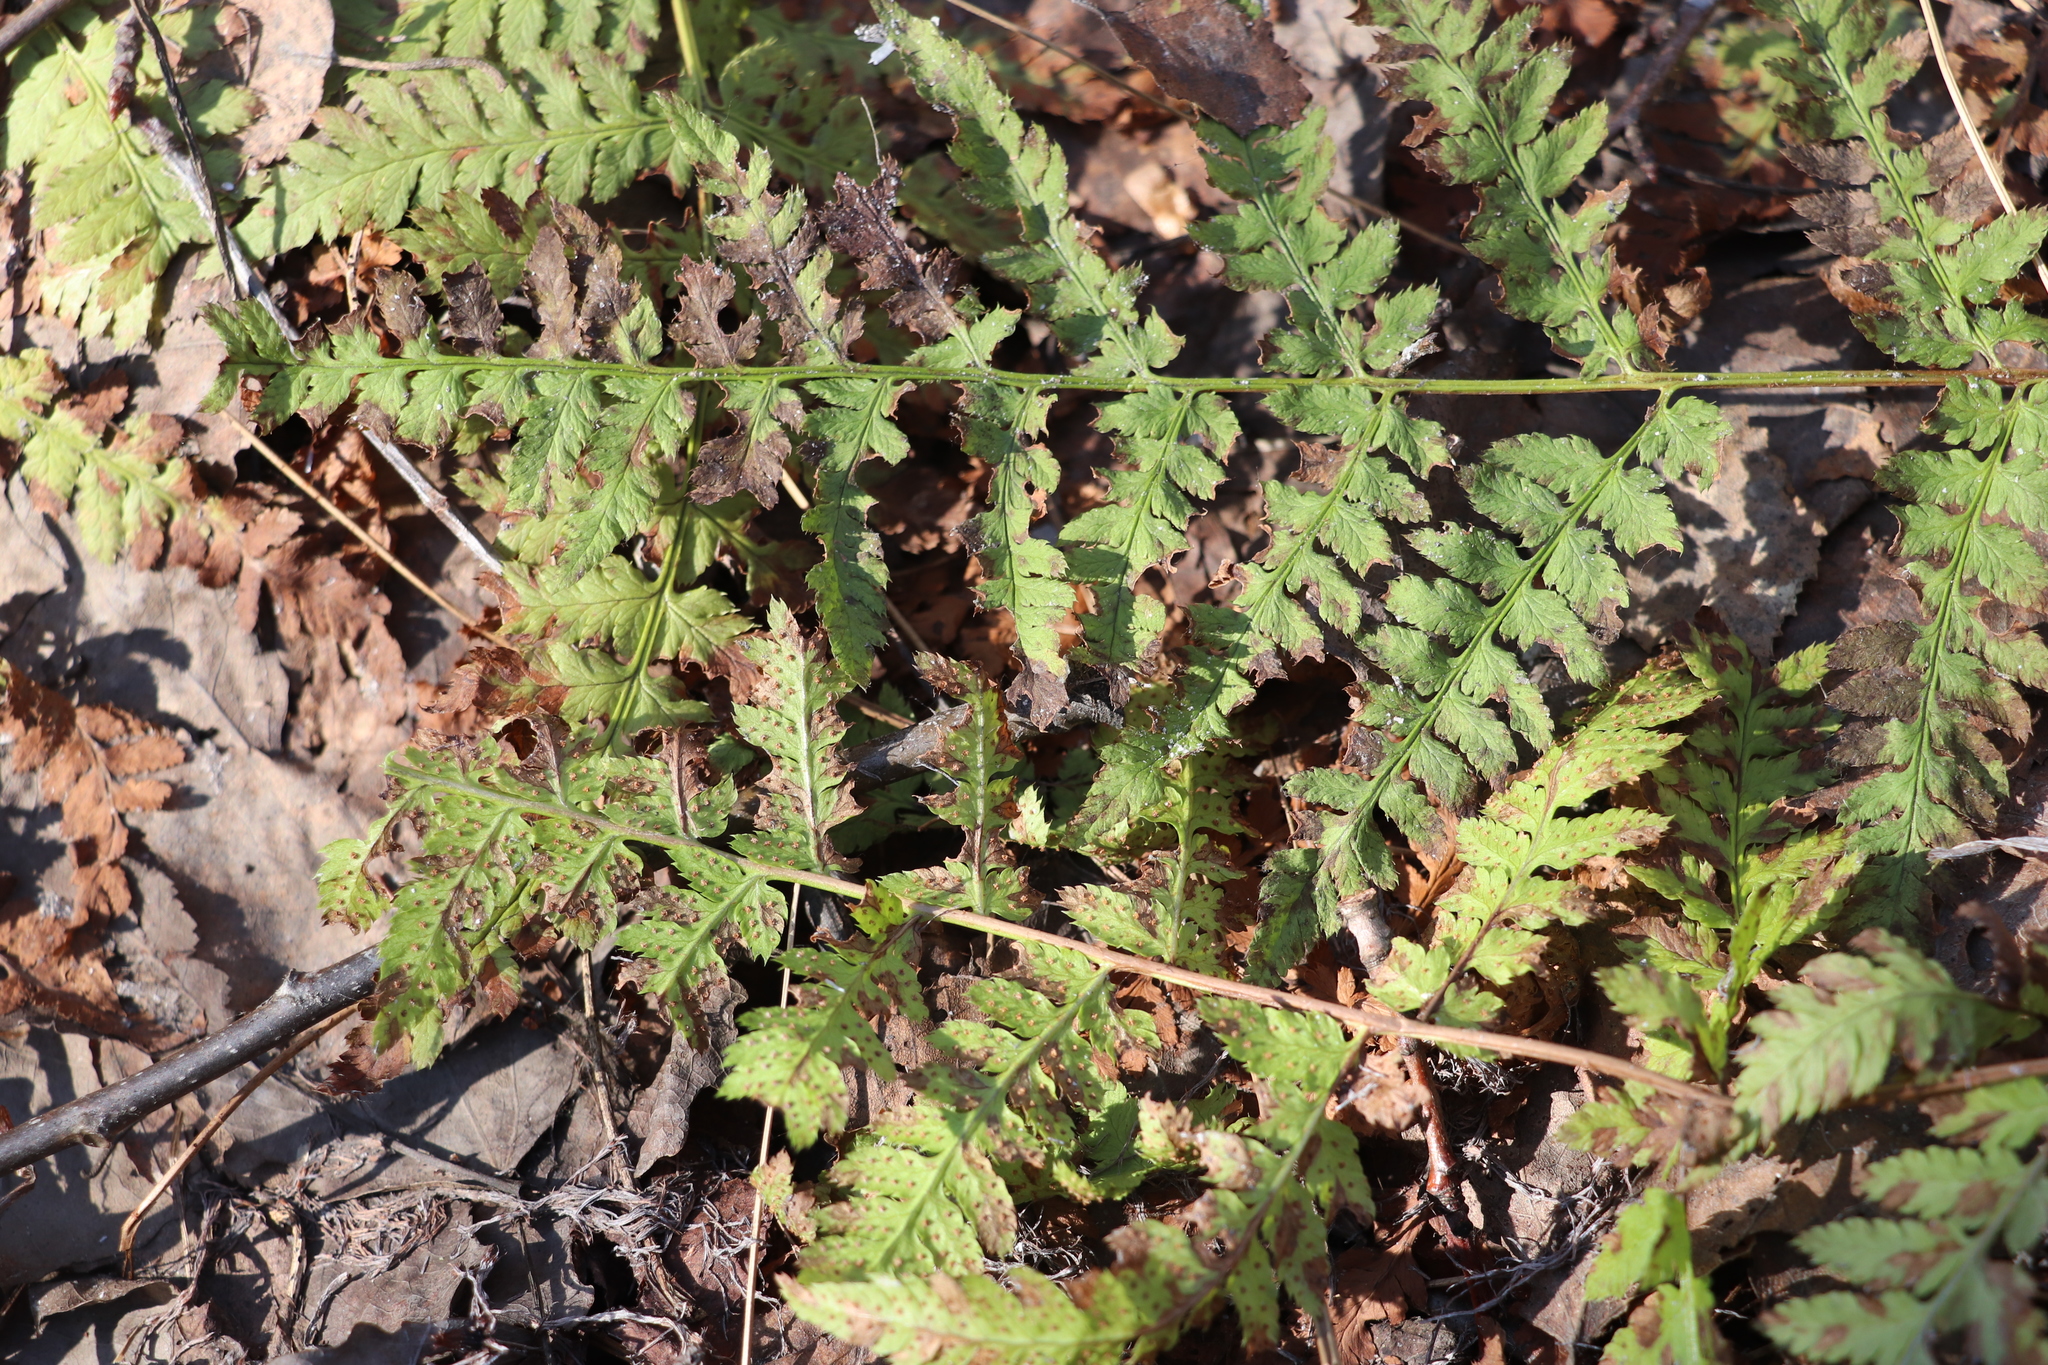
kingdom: Plantae
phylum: Tracheophyta
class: Polypodiopsida
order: Polypodiales
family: Dryopteridaceae
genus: Dryopteris
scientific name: Dryopteris carthusiana
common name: Narrow buckler-fern
